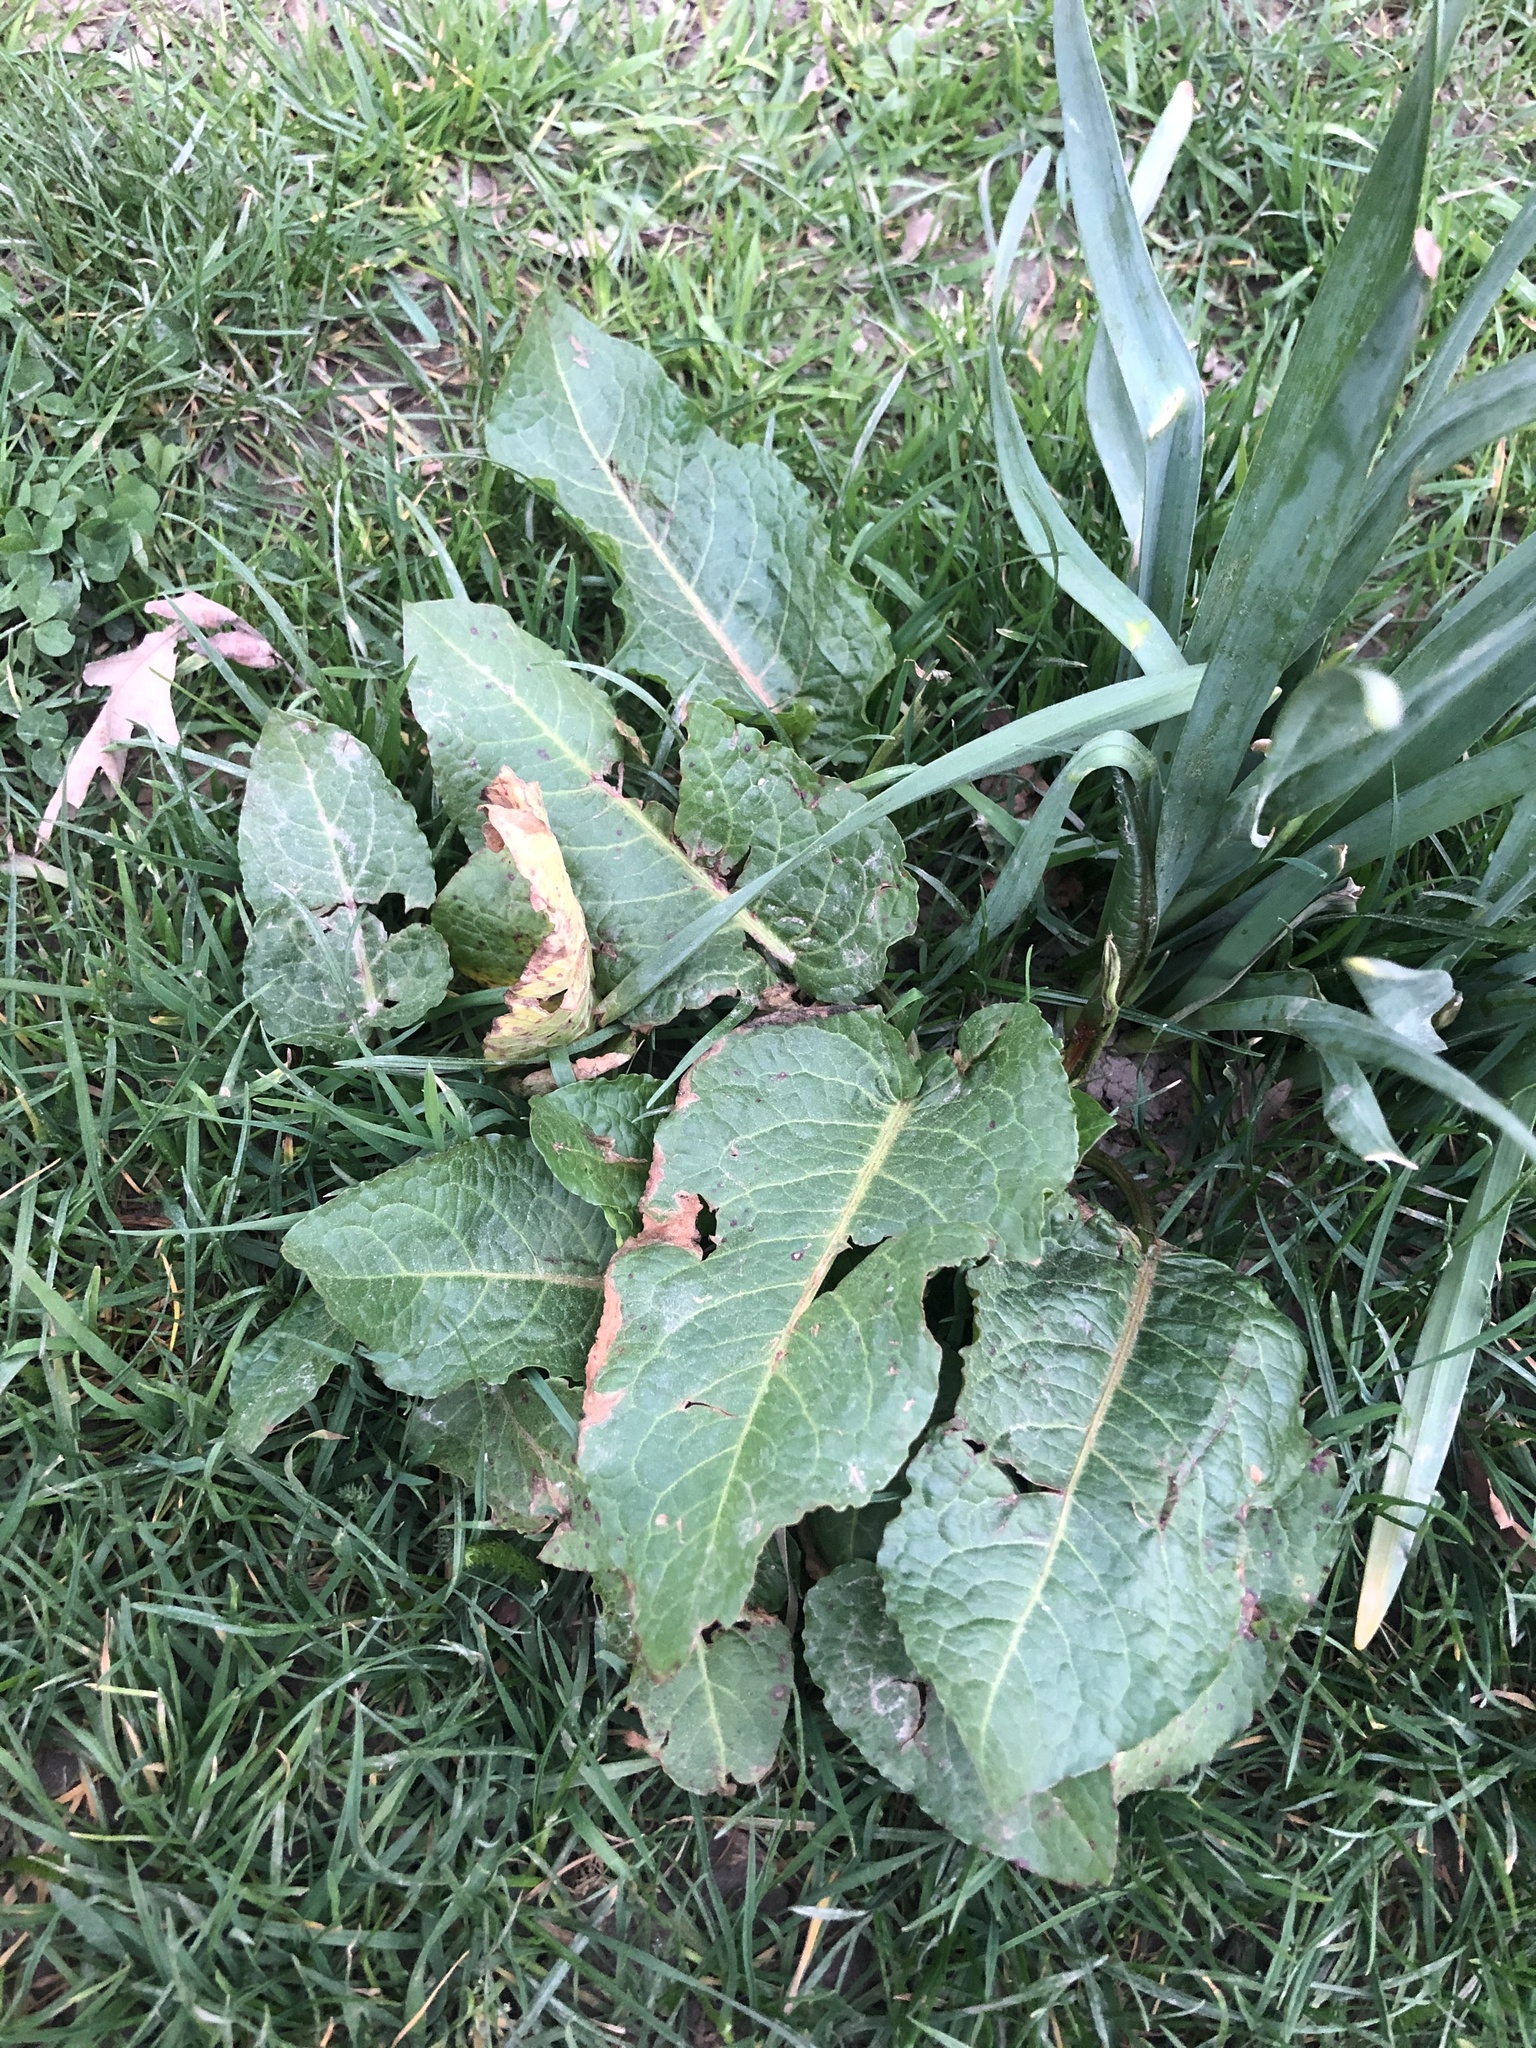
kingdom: Plantae
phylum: Tracheophyta
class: Magnoliopsida
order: Caryophyllales
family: Polygonaceae
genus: Rumex
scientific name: Rumex obtusifolius
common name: Bitter dock
